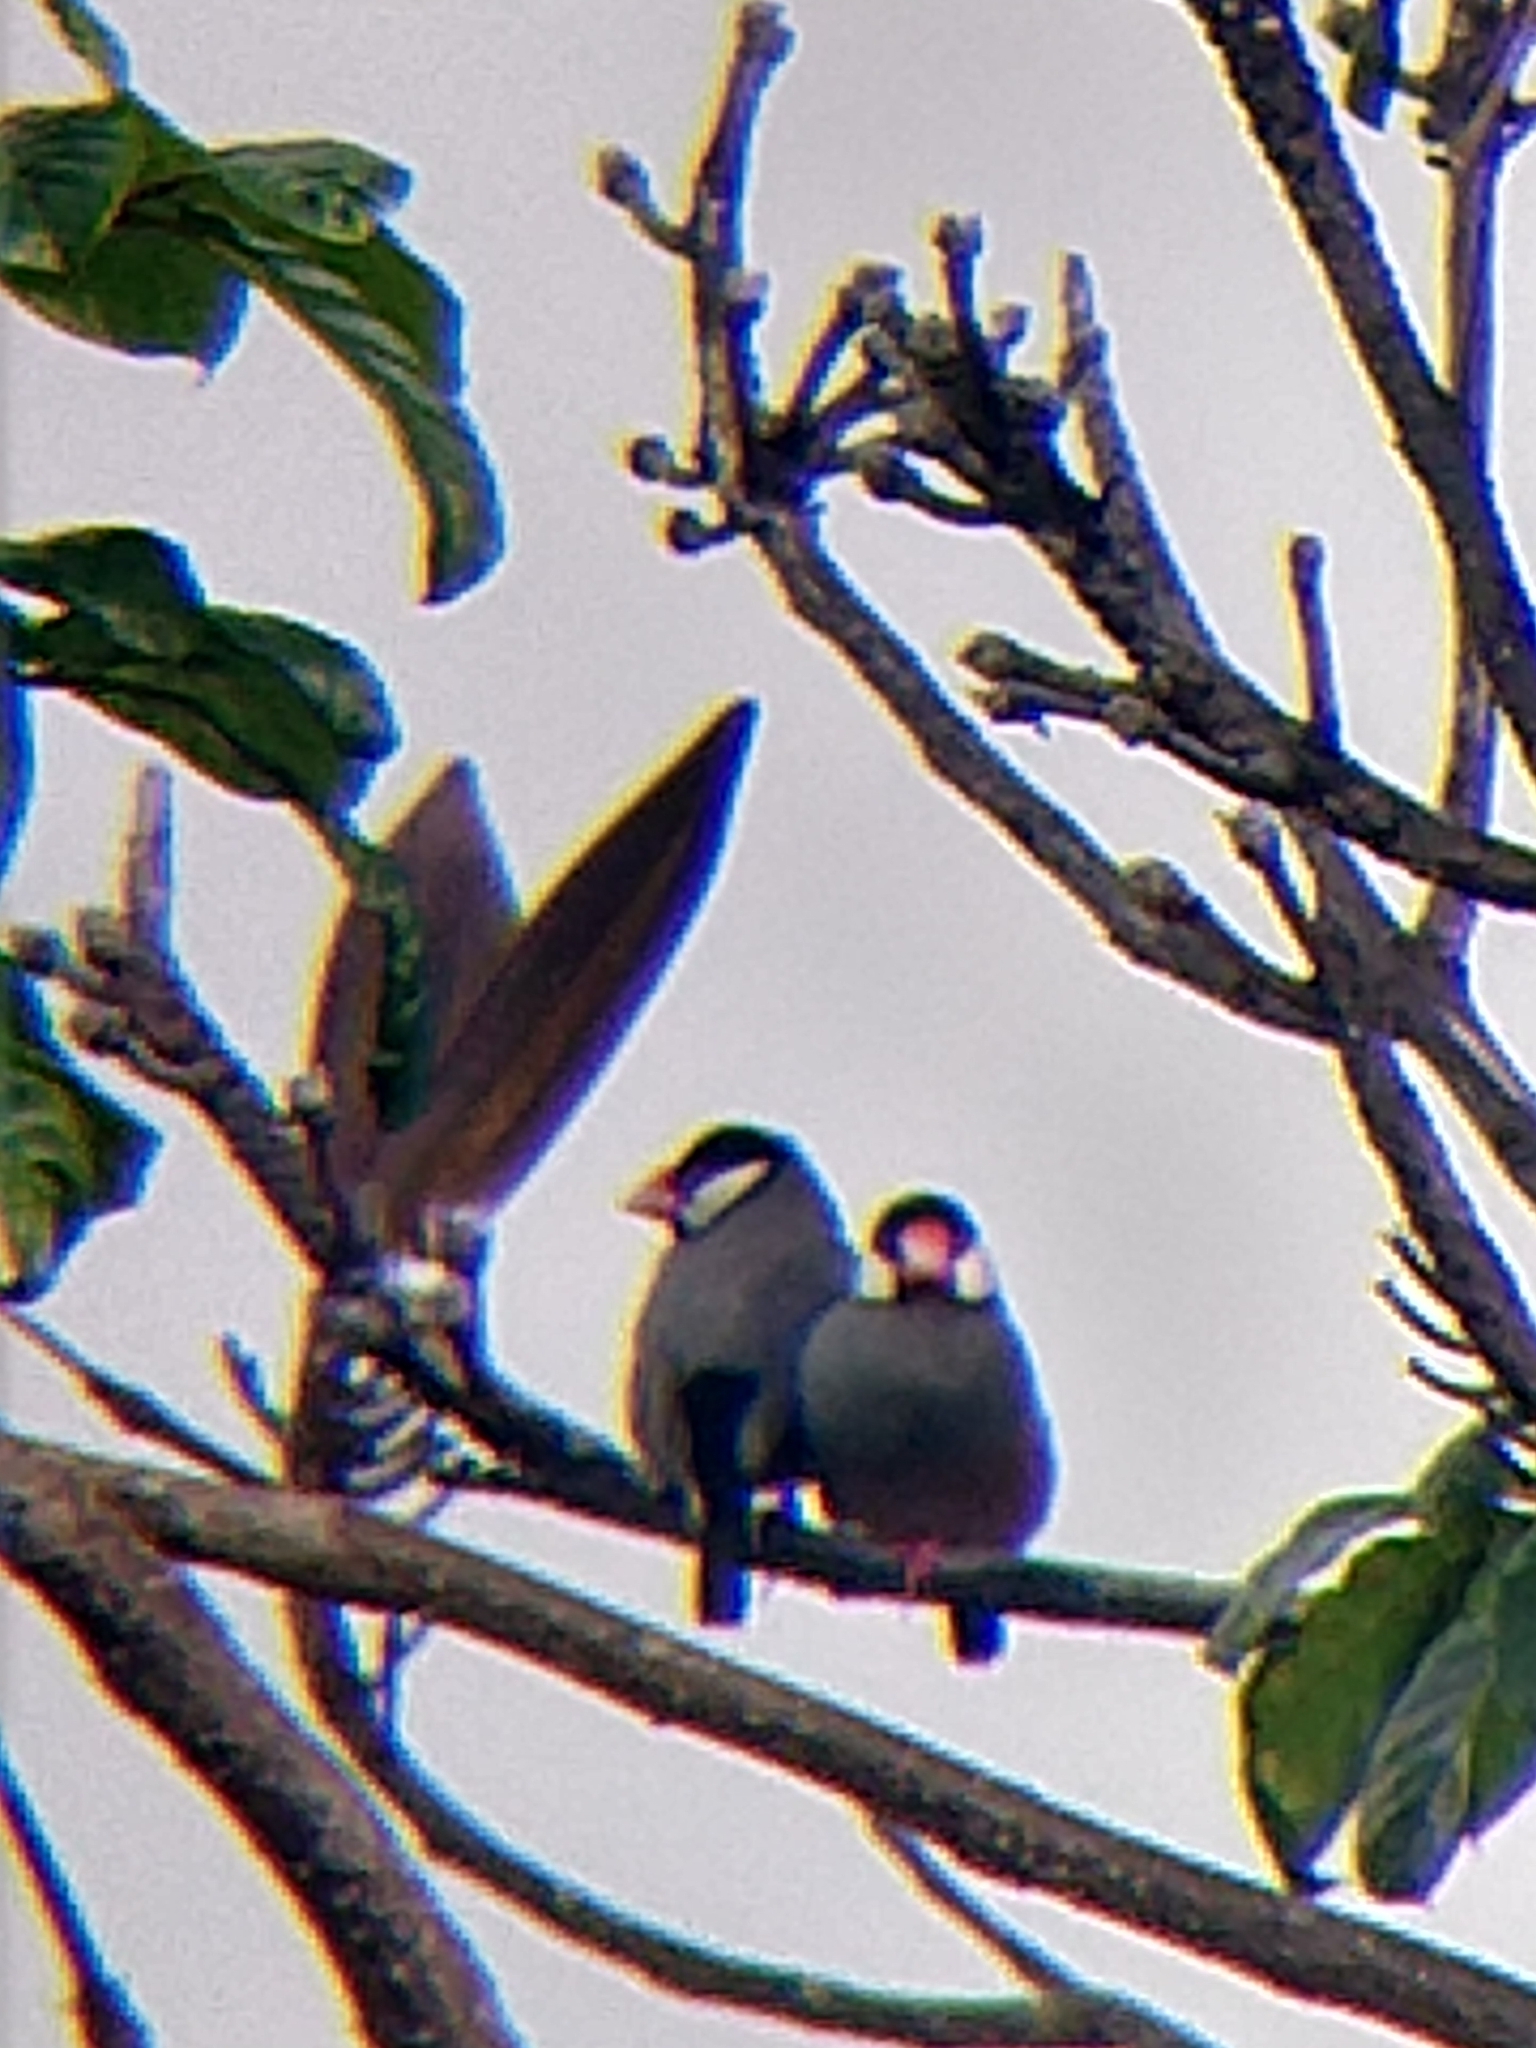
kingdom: Animalia
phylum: Chordata
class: Aves
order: Passeriformes
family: Estrildidae
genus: Lonchura
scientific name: Lonchura oryzivora
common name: Java sparrow
